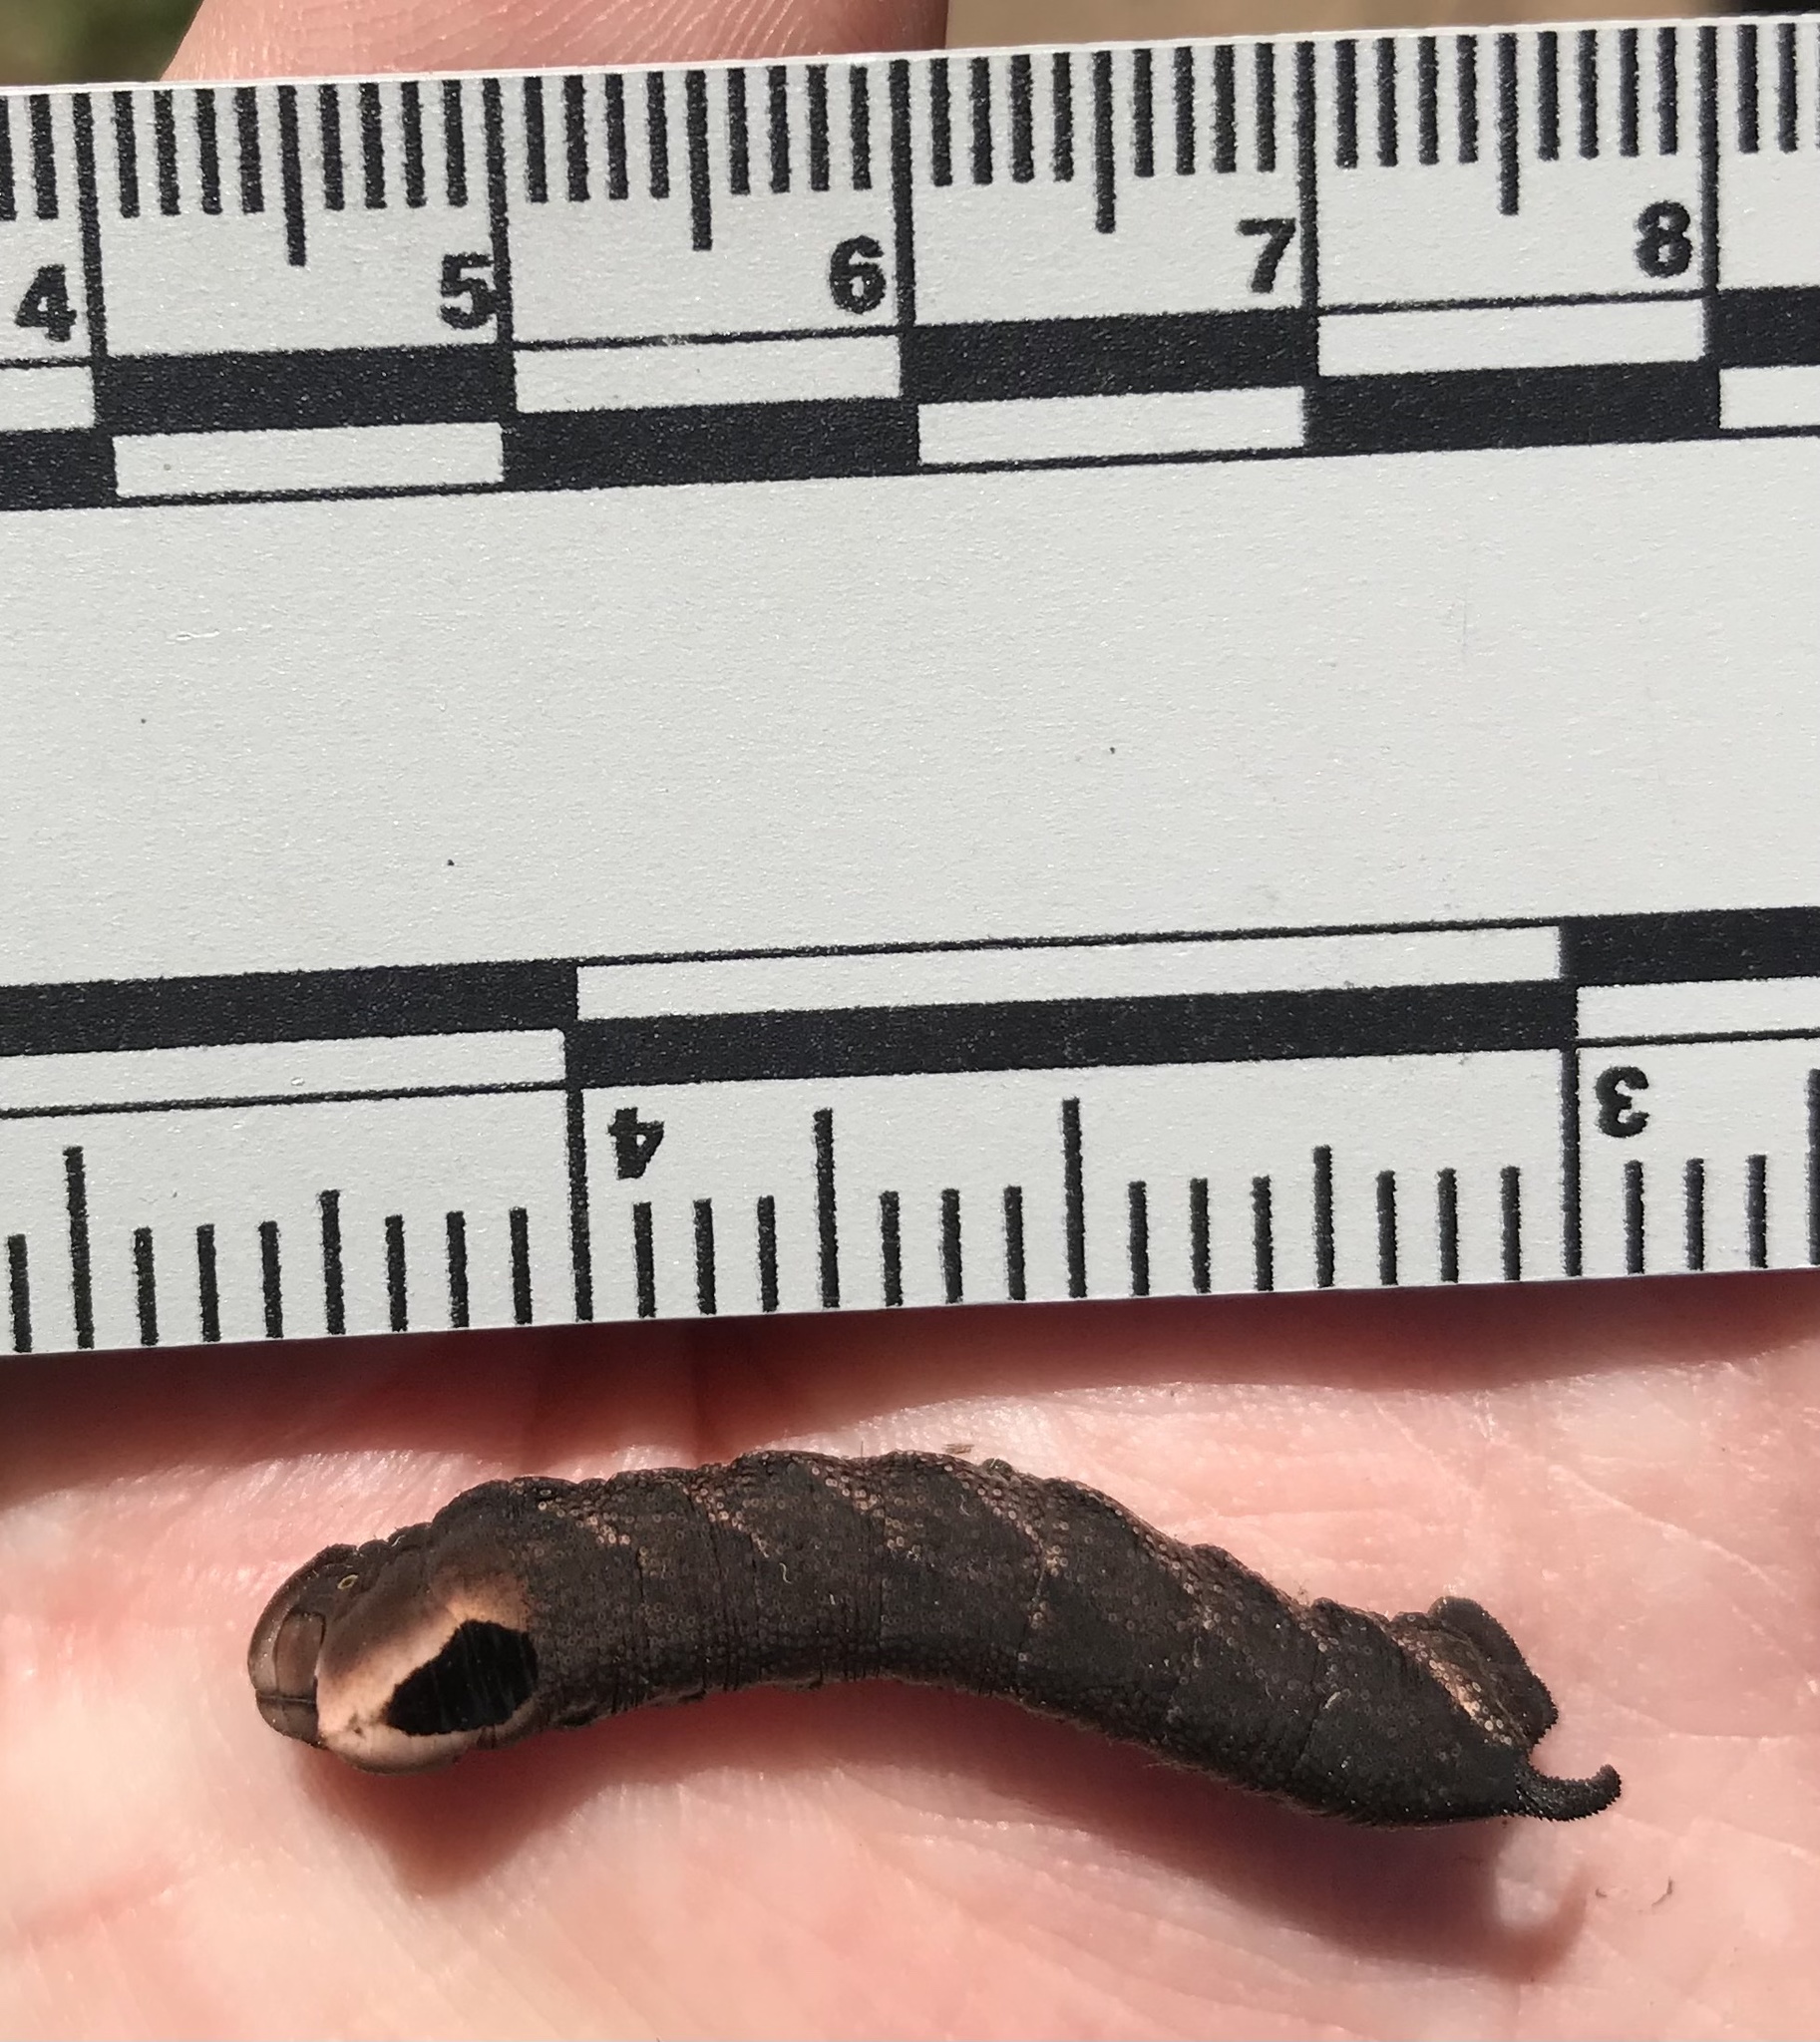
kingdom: Animalia
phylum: Arthropoda
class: Insecta
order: Lepidoptera
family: Sphingidae
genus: Lintneria
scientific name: Lintneria eremitus
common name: Hermit sphinx
